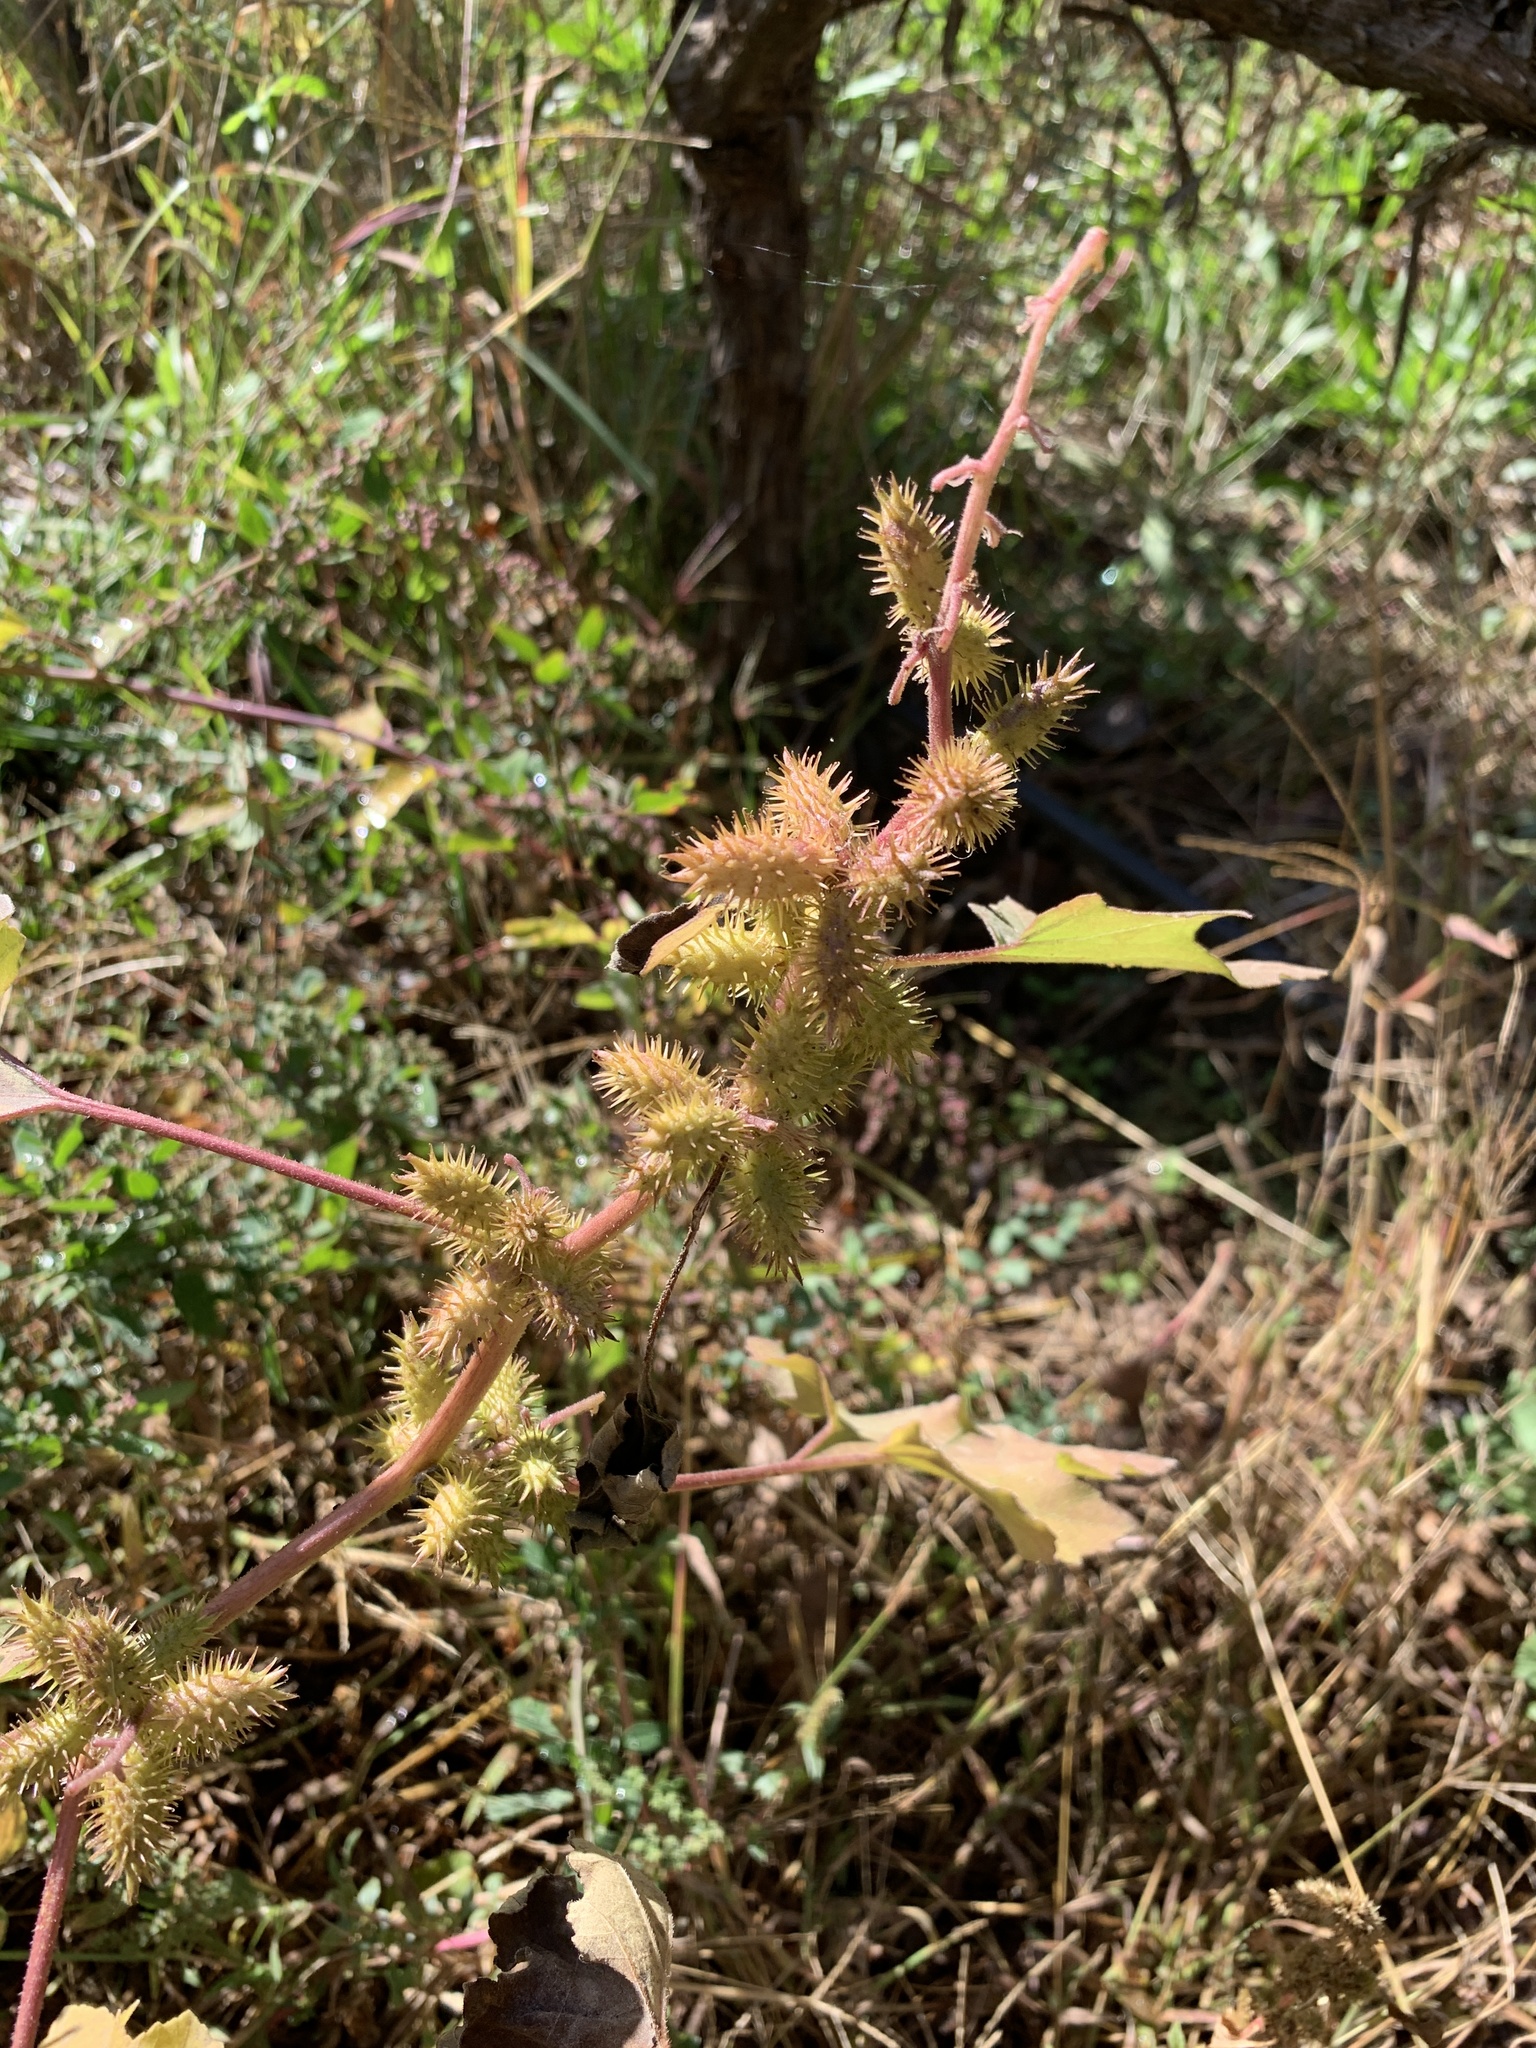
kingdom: Plantae
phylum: Tracheophyta
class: Magnoliopsida
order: Asterales
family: Asteraceae
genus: Xanthium
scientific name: Xanthium strumarium
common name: Rough cocklebur
